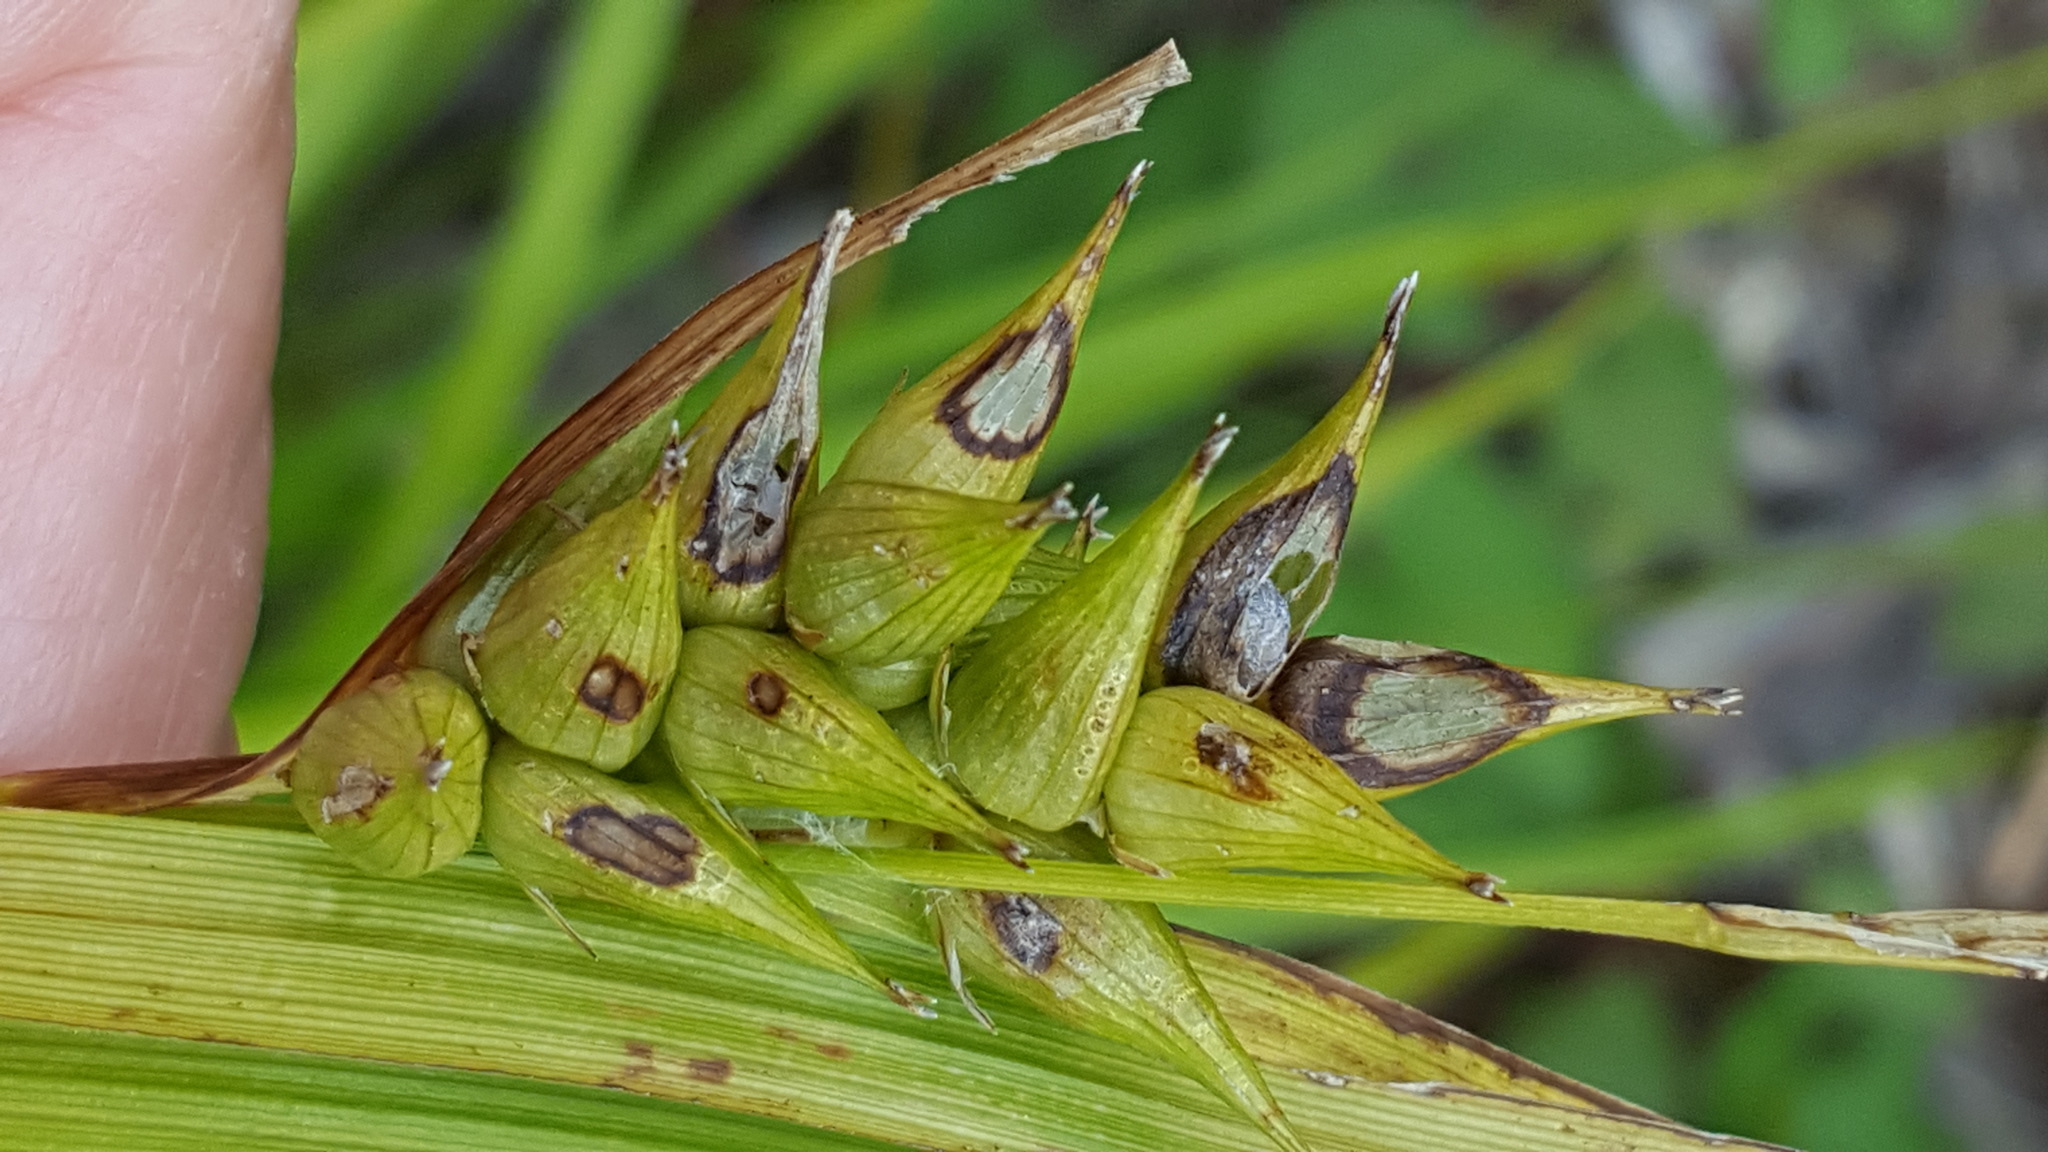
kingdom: Plantae
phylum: Tracheophyta
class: Liliopsida
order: Poales
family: Cyperaceae
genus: Carex
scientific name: Carex intumescens
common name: Greater bladder sedge
